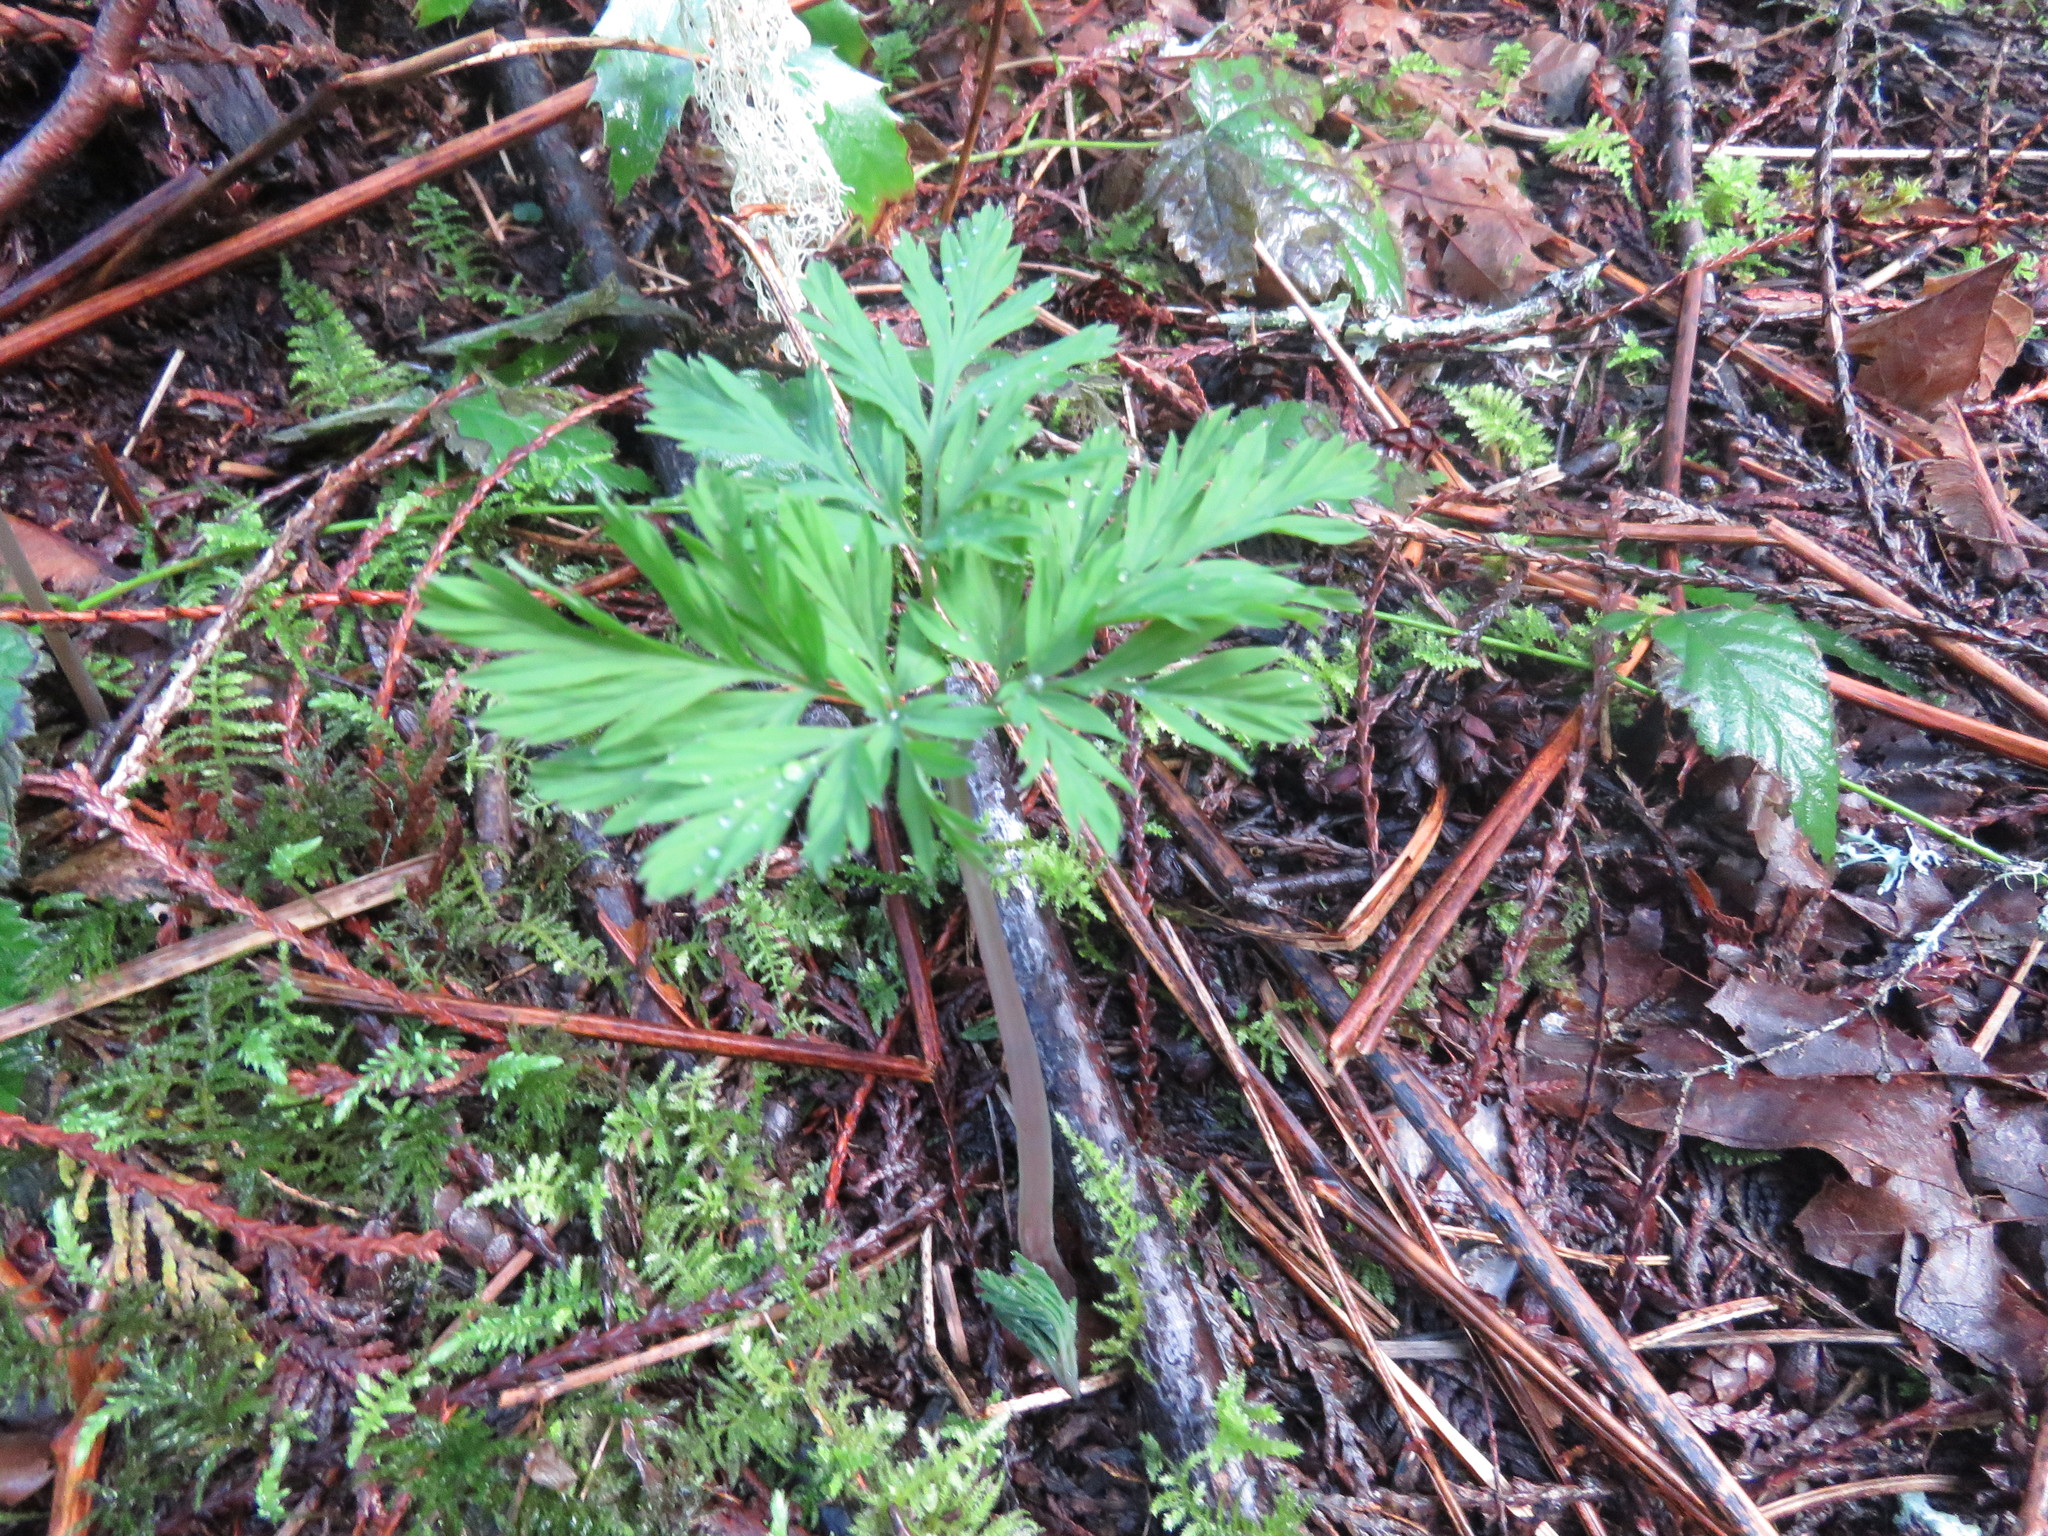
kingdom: Plantae
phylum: Tracheophyta
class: Magnoliopsida
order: Ranunculales
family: Papaveraceae
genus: Dicentra
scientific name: Dicentra formosa
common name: Bleeding-heart
